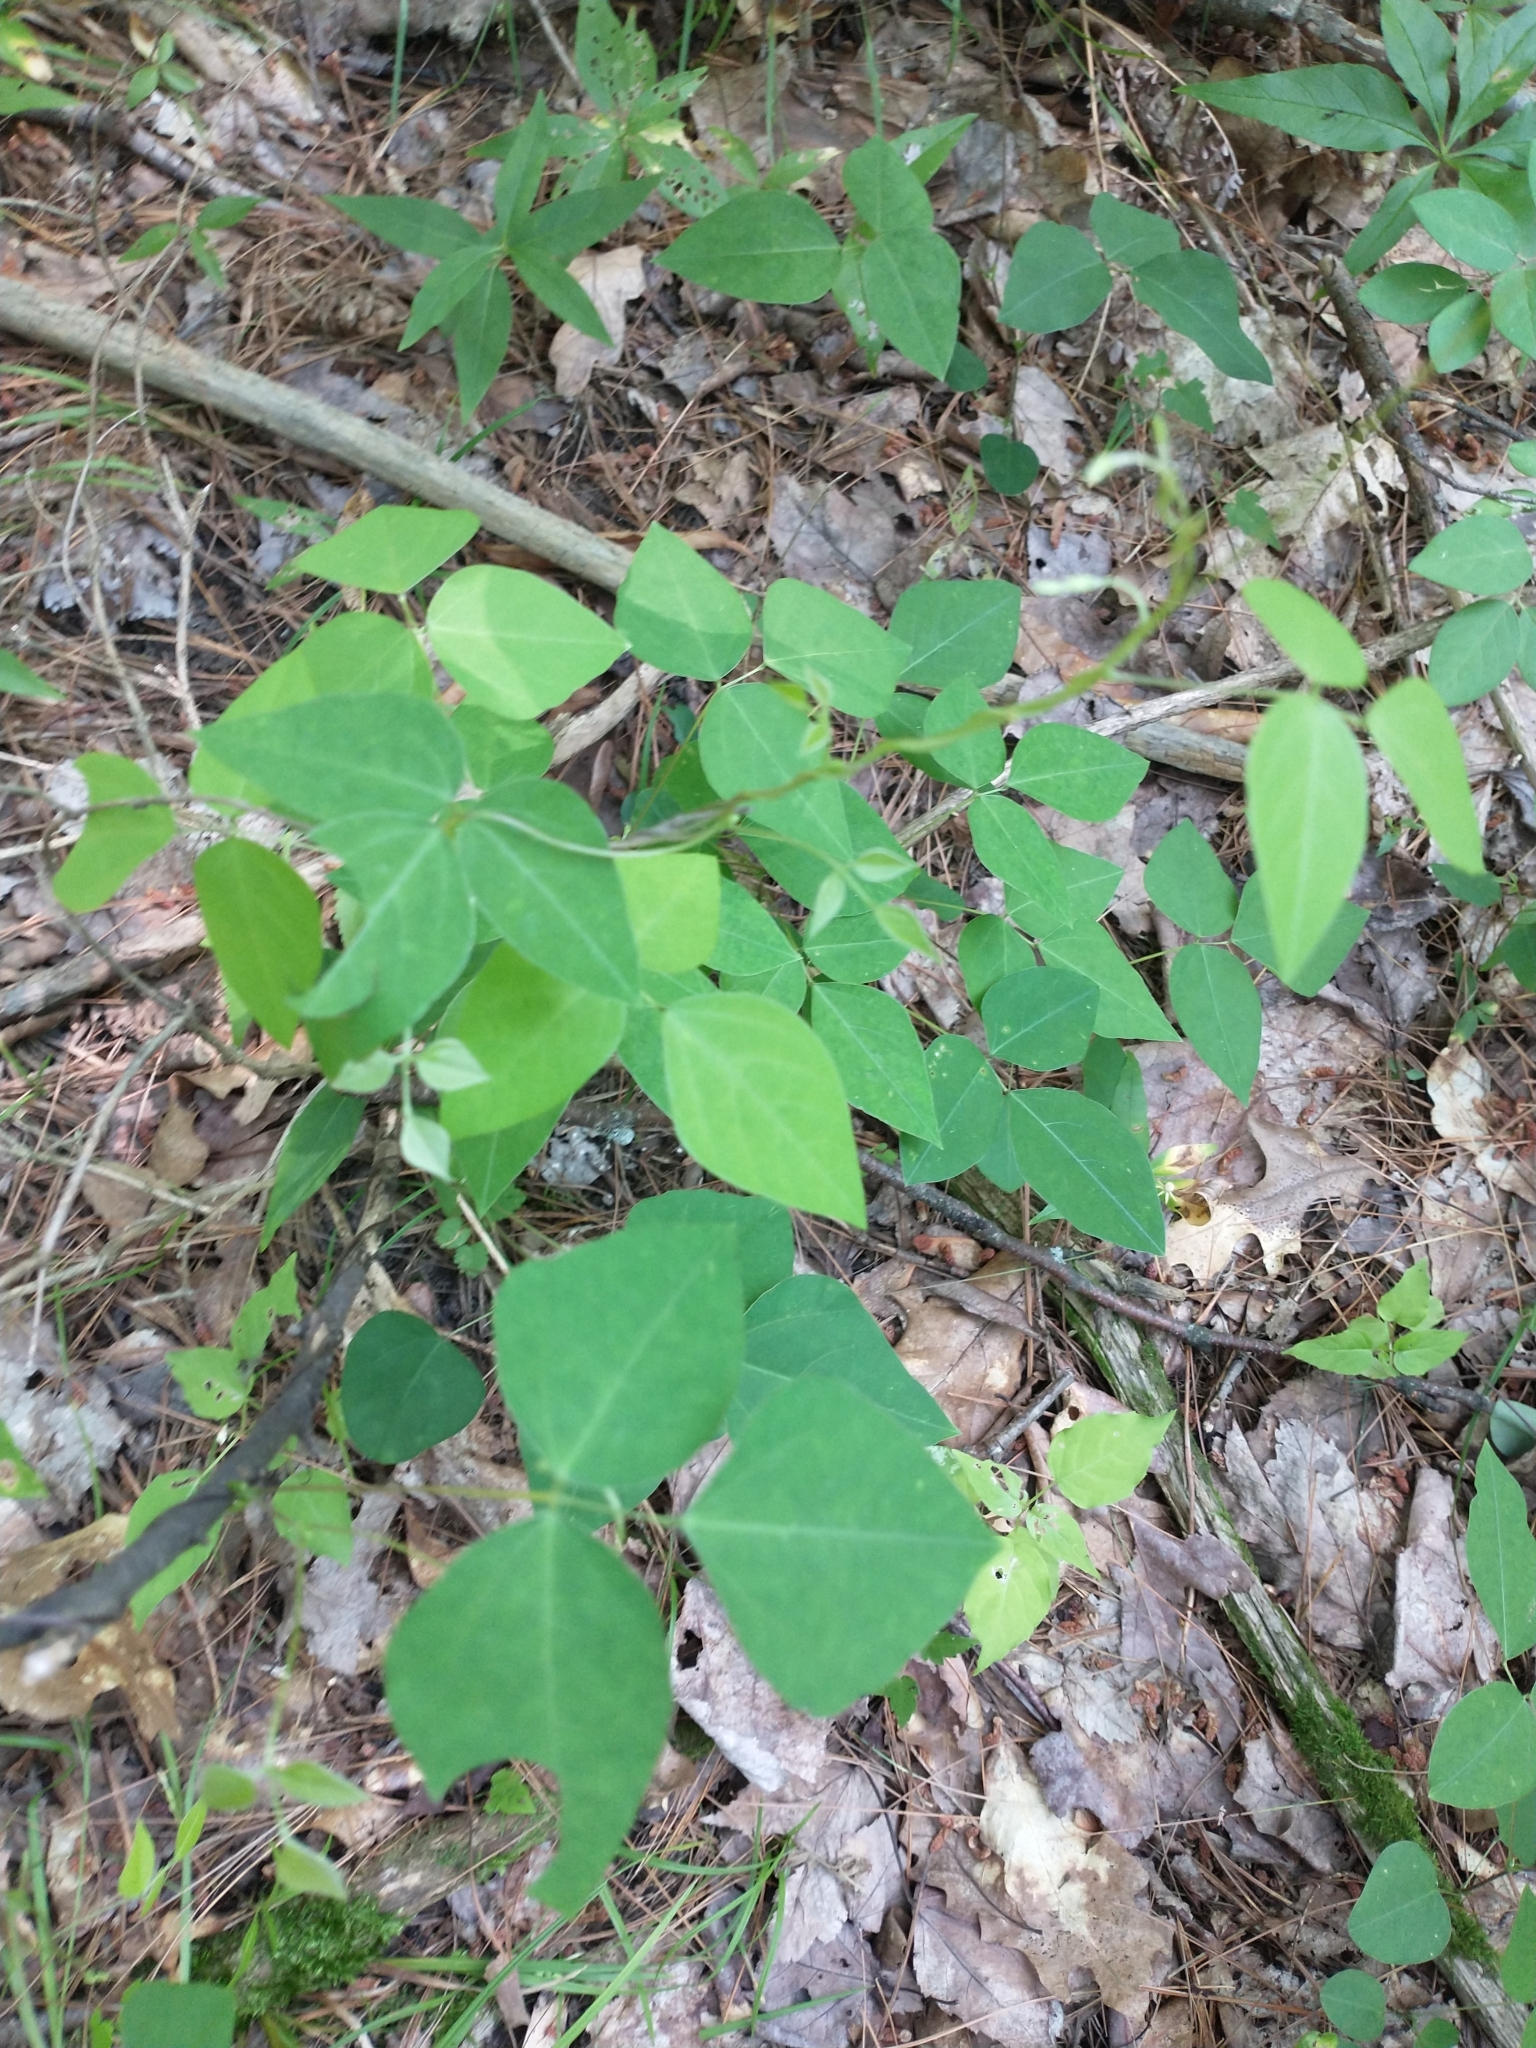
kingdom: Plantae
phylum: Tracheophyta
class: Magnoliopsida
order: Fabales
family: Fabaceae
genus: Amphicarpaea
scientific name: Amphicarpaea bracteata
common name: American hog peanut
